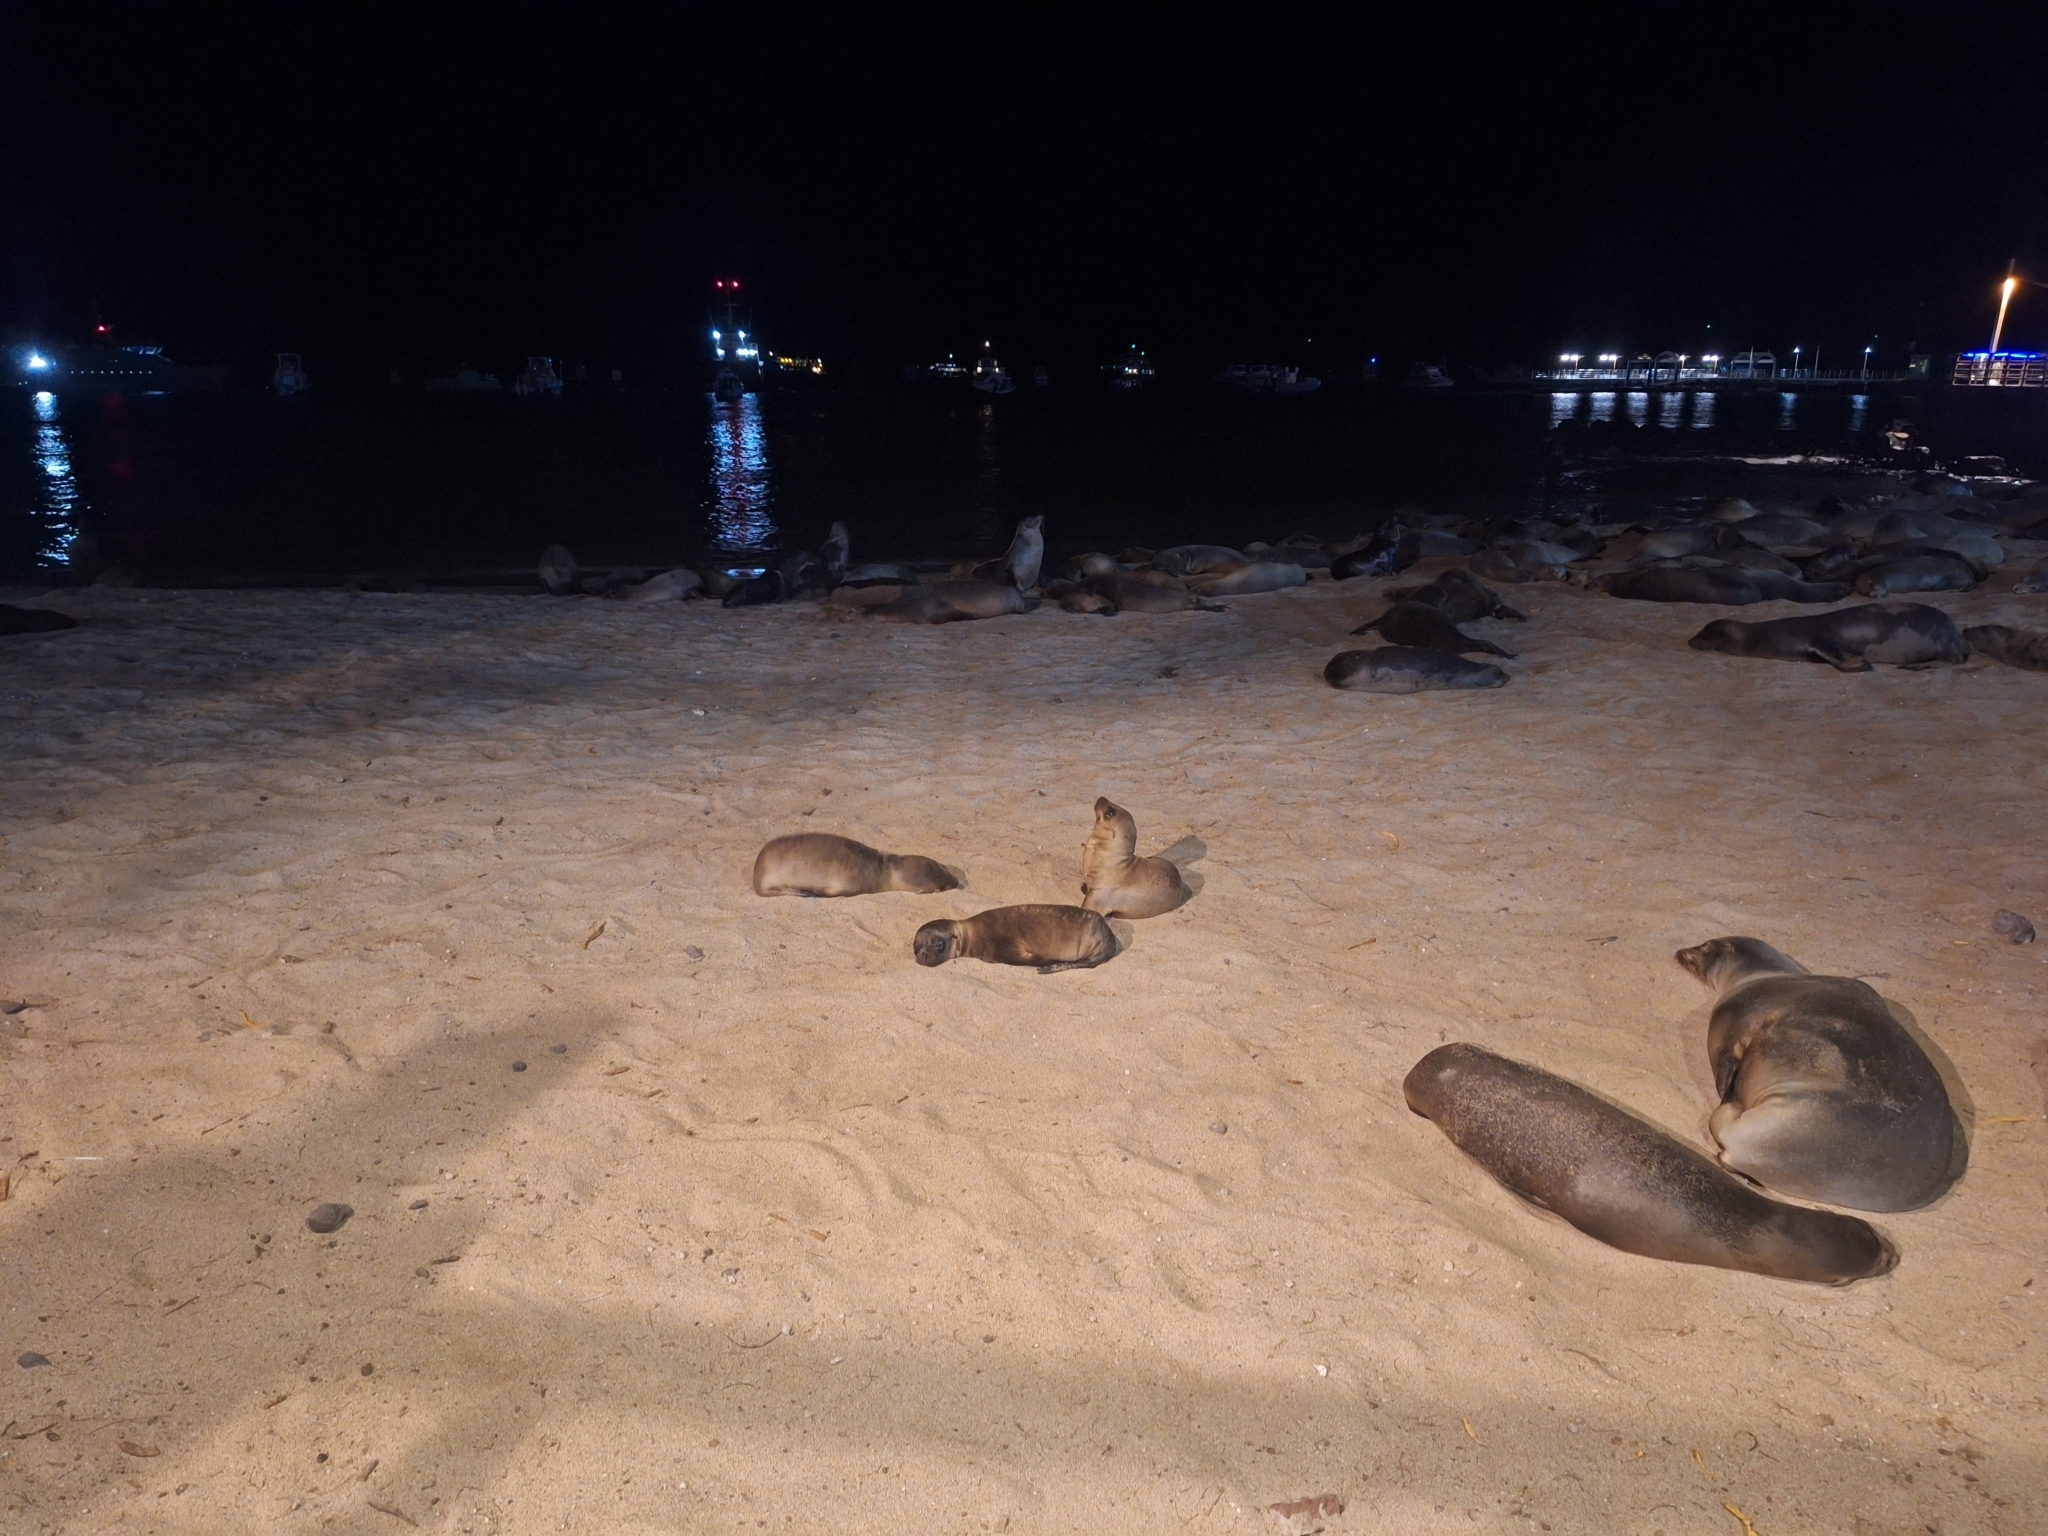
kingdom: Animalia
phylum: Chordata
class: Mammalia
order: Carnivora
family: Otariidae
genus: Zalophus
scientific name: Zalophus wollebaeki
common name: Galapagos sea lion
